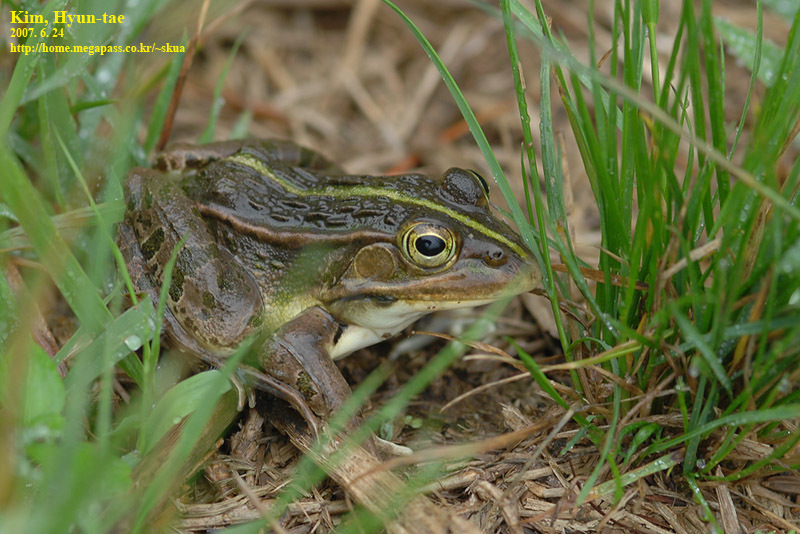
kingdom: Animalia
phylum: Chordata
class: Amphibia
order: Anura
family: Ranidae
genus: Pelophylax
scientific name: Pelophylax nigromaculatus
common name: Black-spotted pond frog
